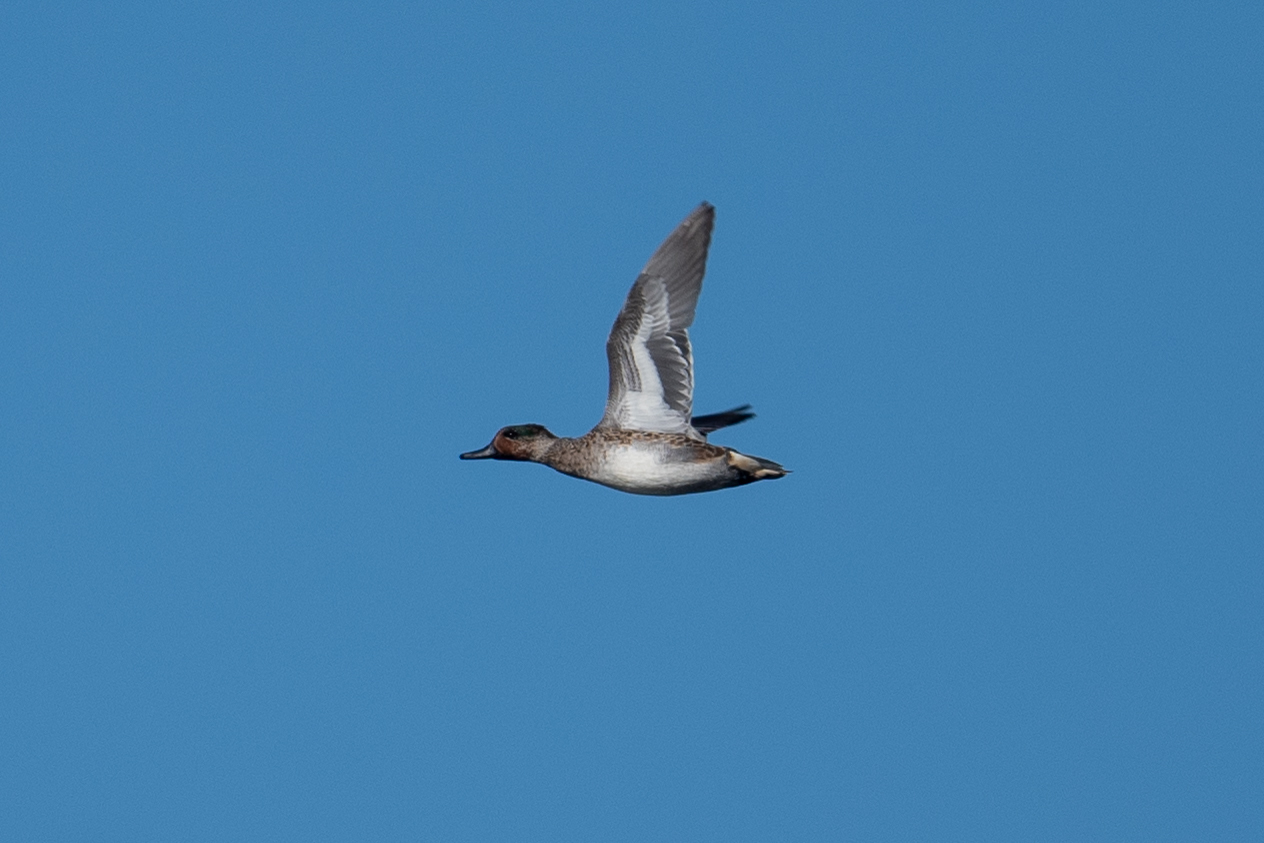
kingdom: Animalia
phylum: Chordata
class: Aves
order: Anseriformes
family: Anatidae
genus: Anas
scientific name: Anas crecca
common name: Eurasian teal
